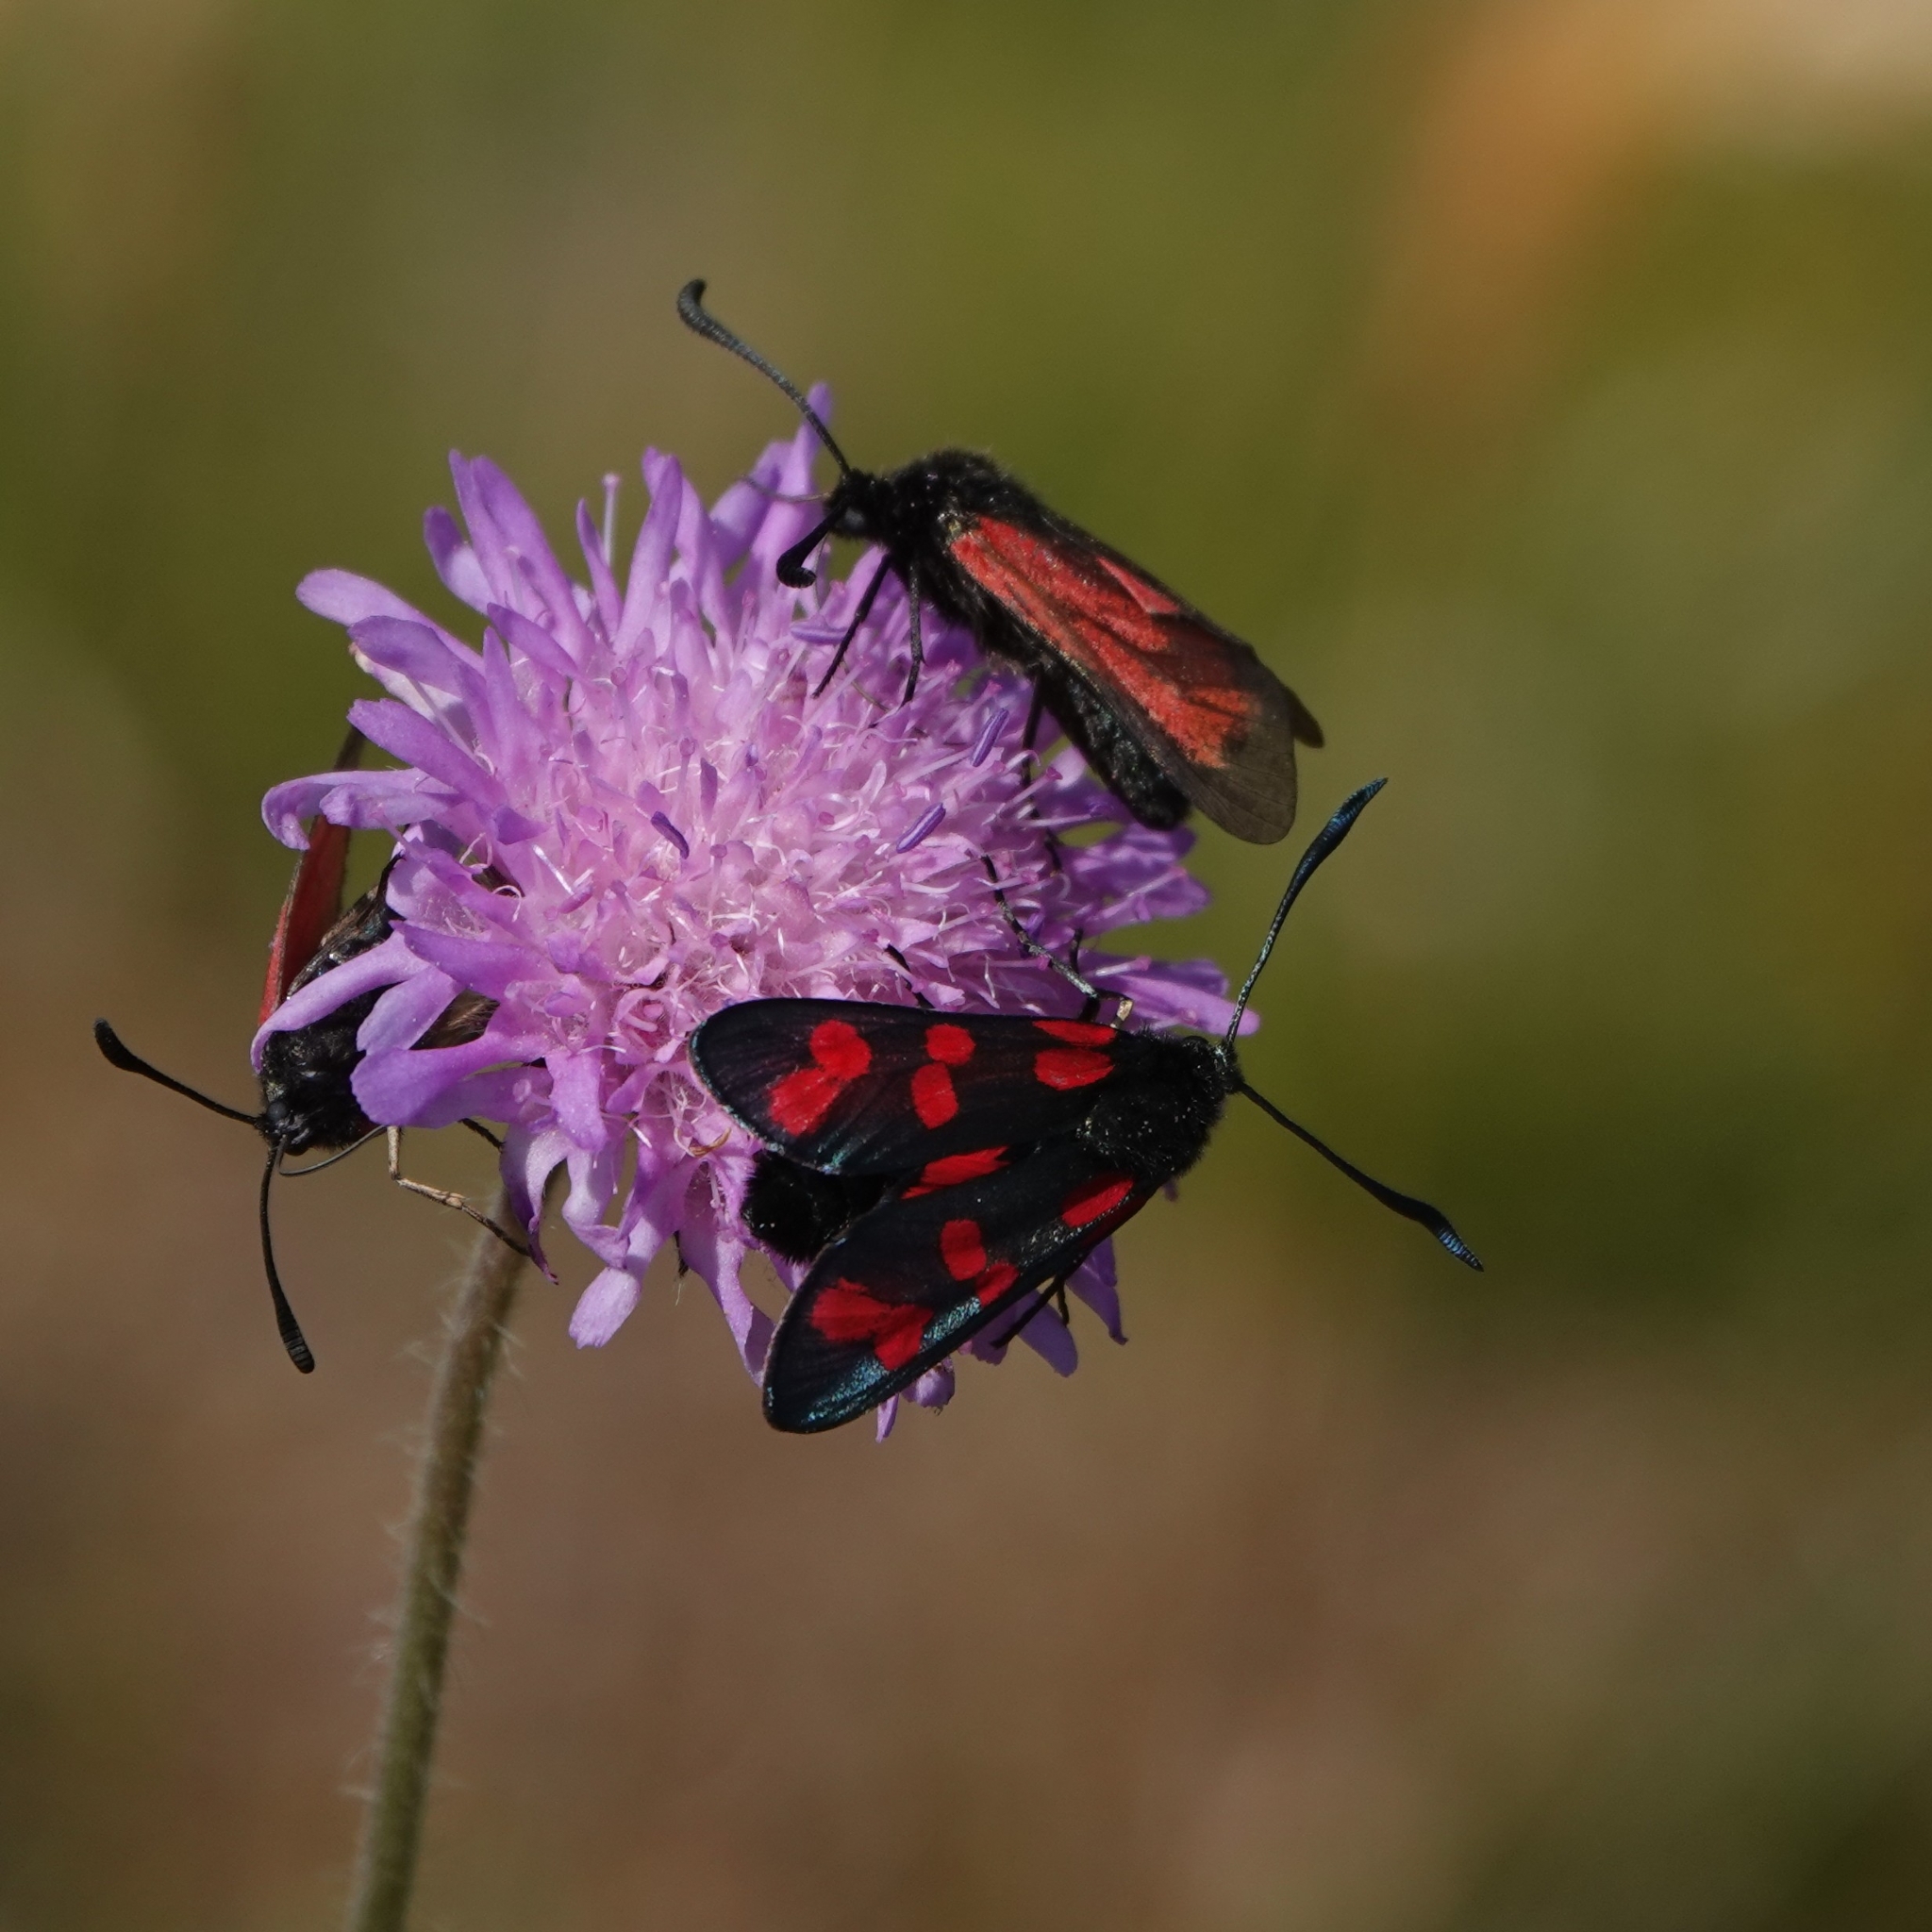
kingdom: Animalia
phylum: Arthropoda
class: Insecta
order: Lepidoptera
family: Zygaenidae
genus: Zygaena
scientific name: Zygaena filipendulae
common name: Six-spot burnet
